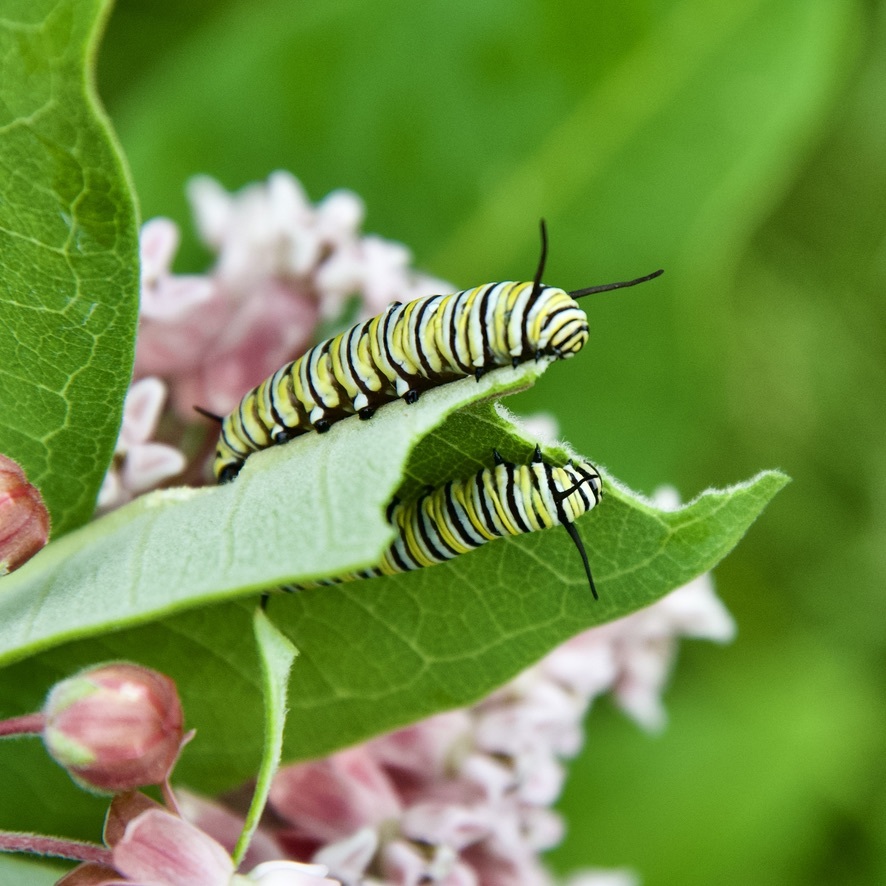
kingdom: Animalia
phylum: Arthropoda
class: Insecta
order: Lepidoptera
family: Nymphalidae
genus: Danaus
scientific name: Danaus plexippus
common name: Monarch
